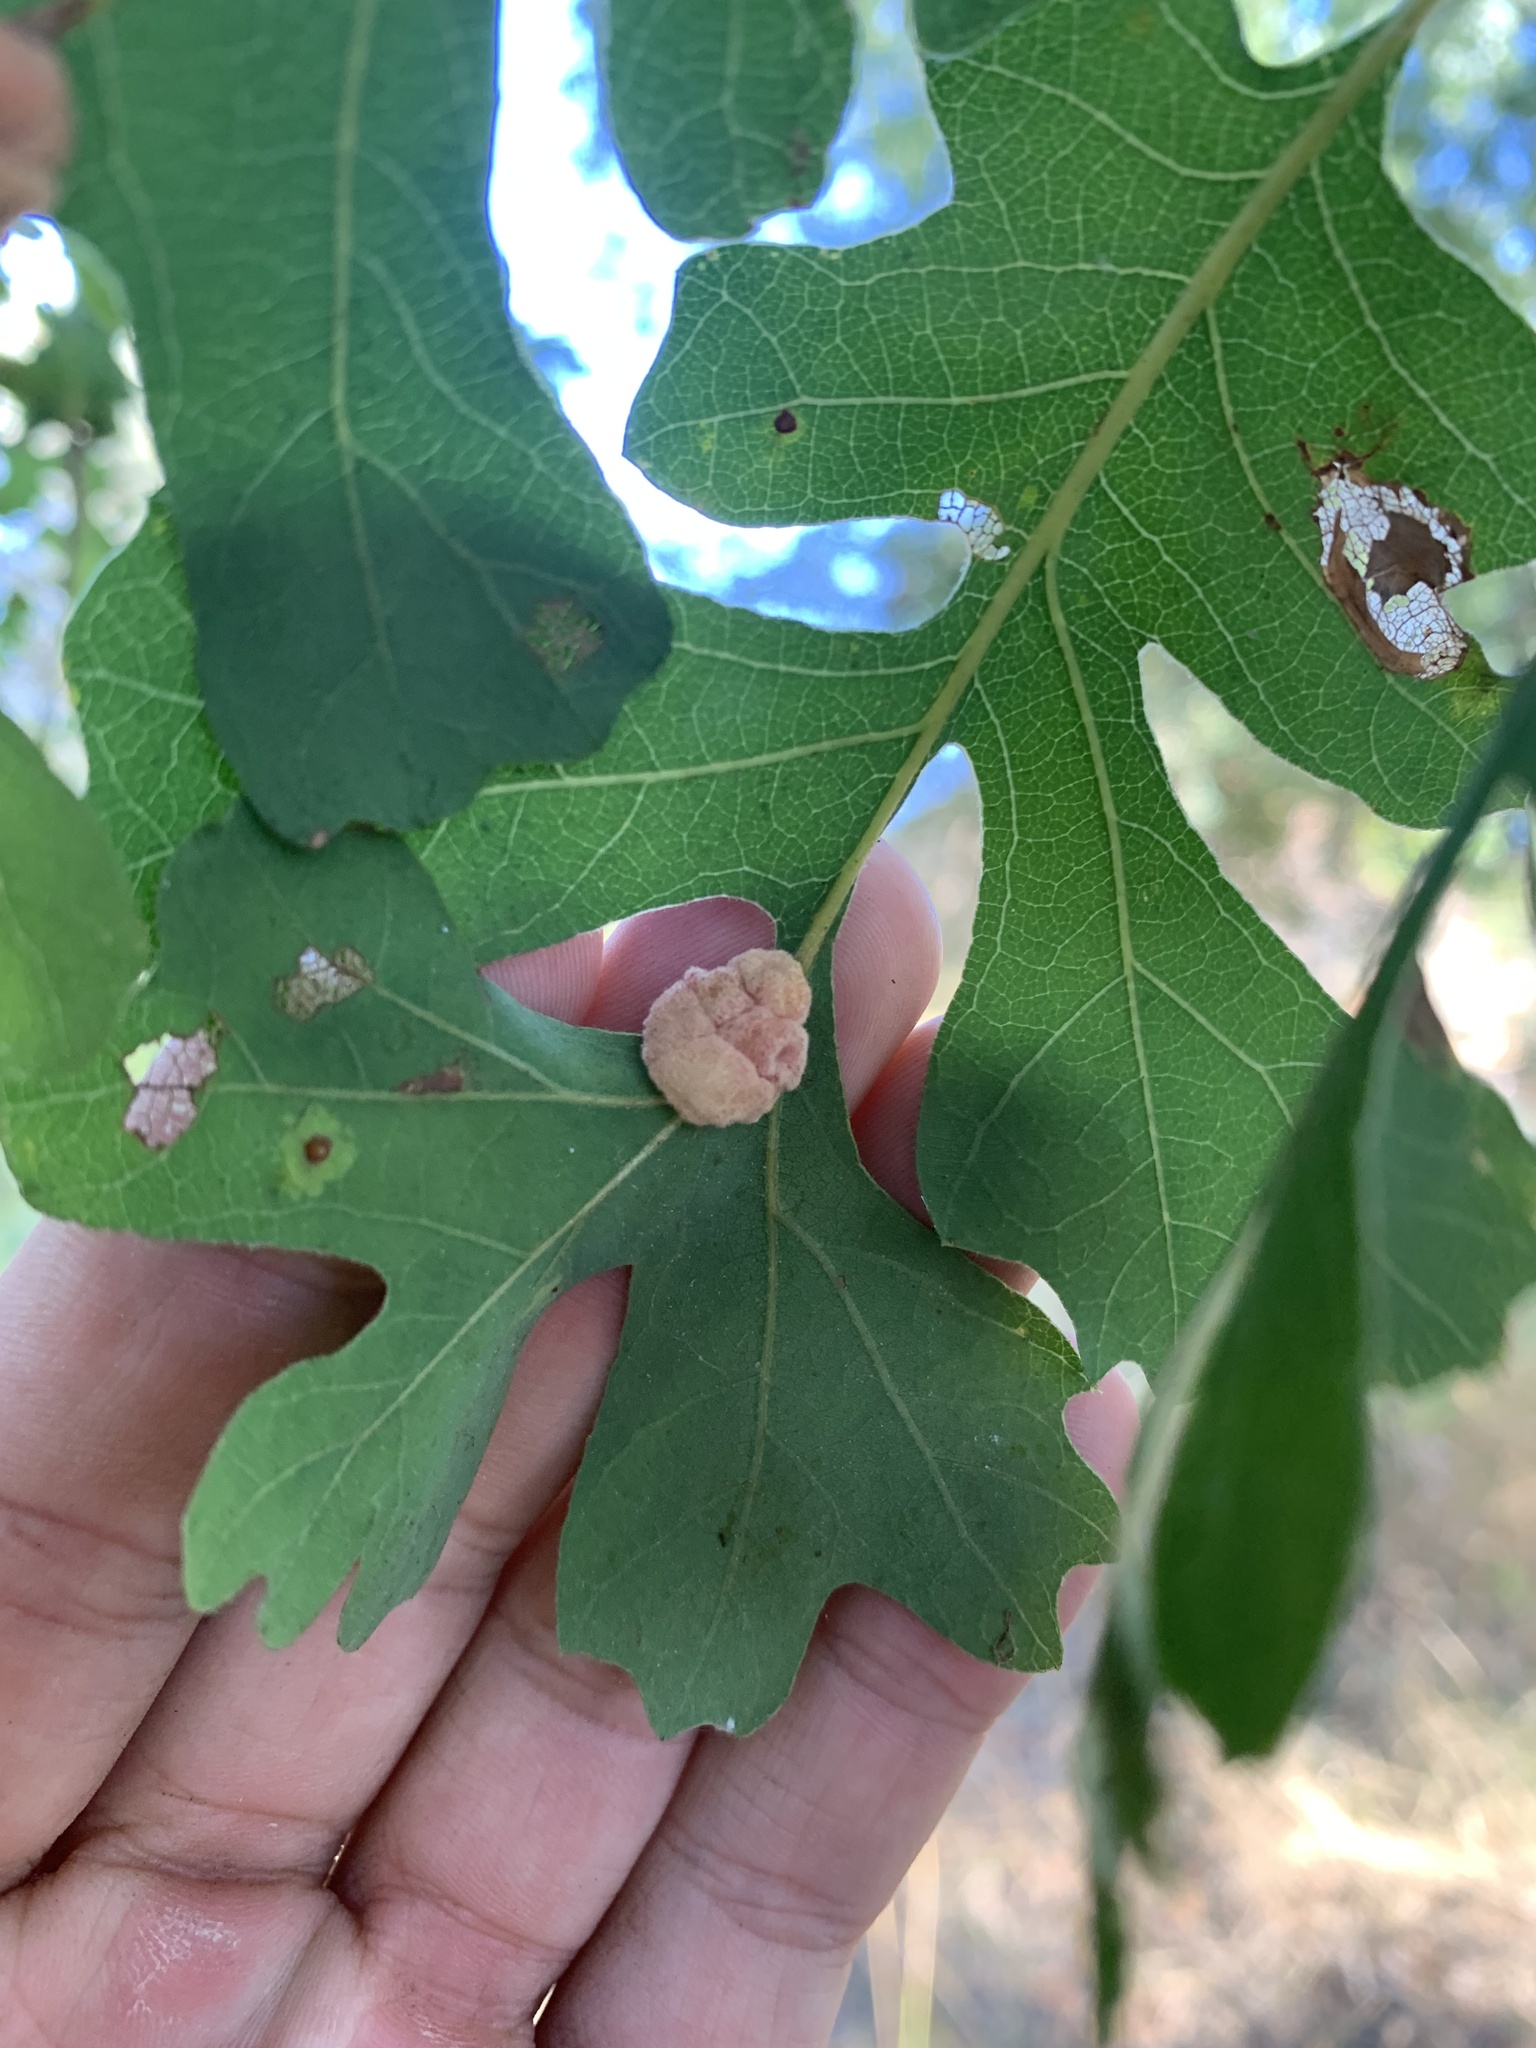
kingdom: Animalia
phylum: Arthropoda
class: Insecta
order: Hymenoptera
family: Cynipidae
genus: Andricus
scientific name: Andricus
